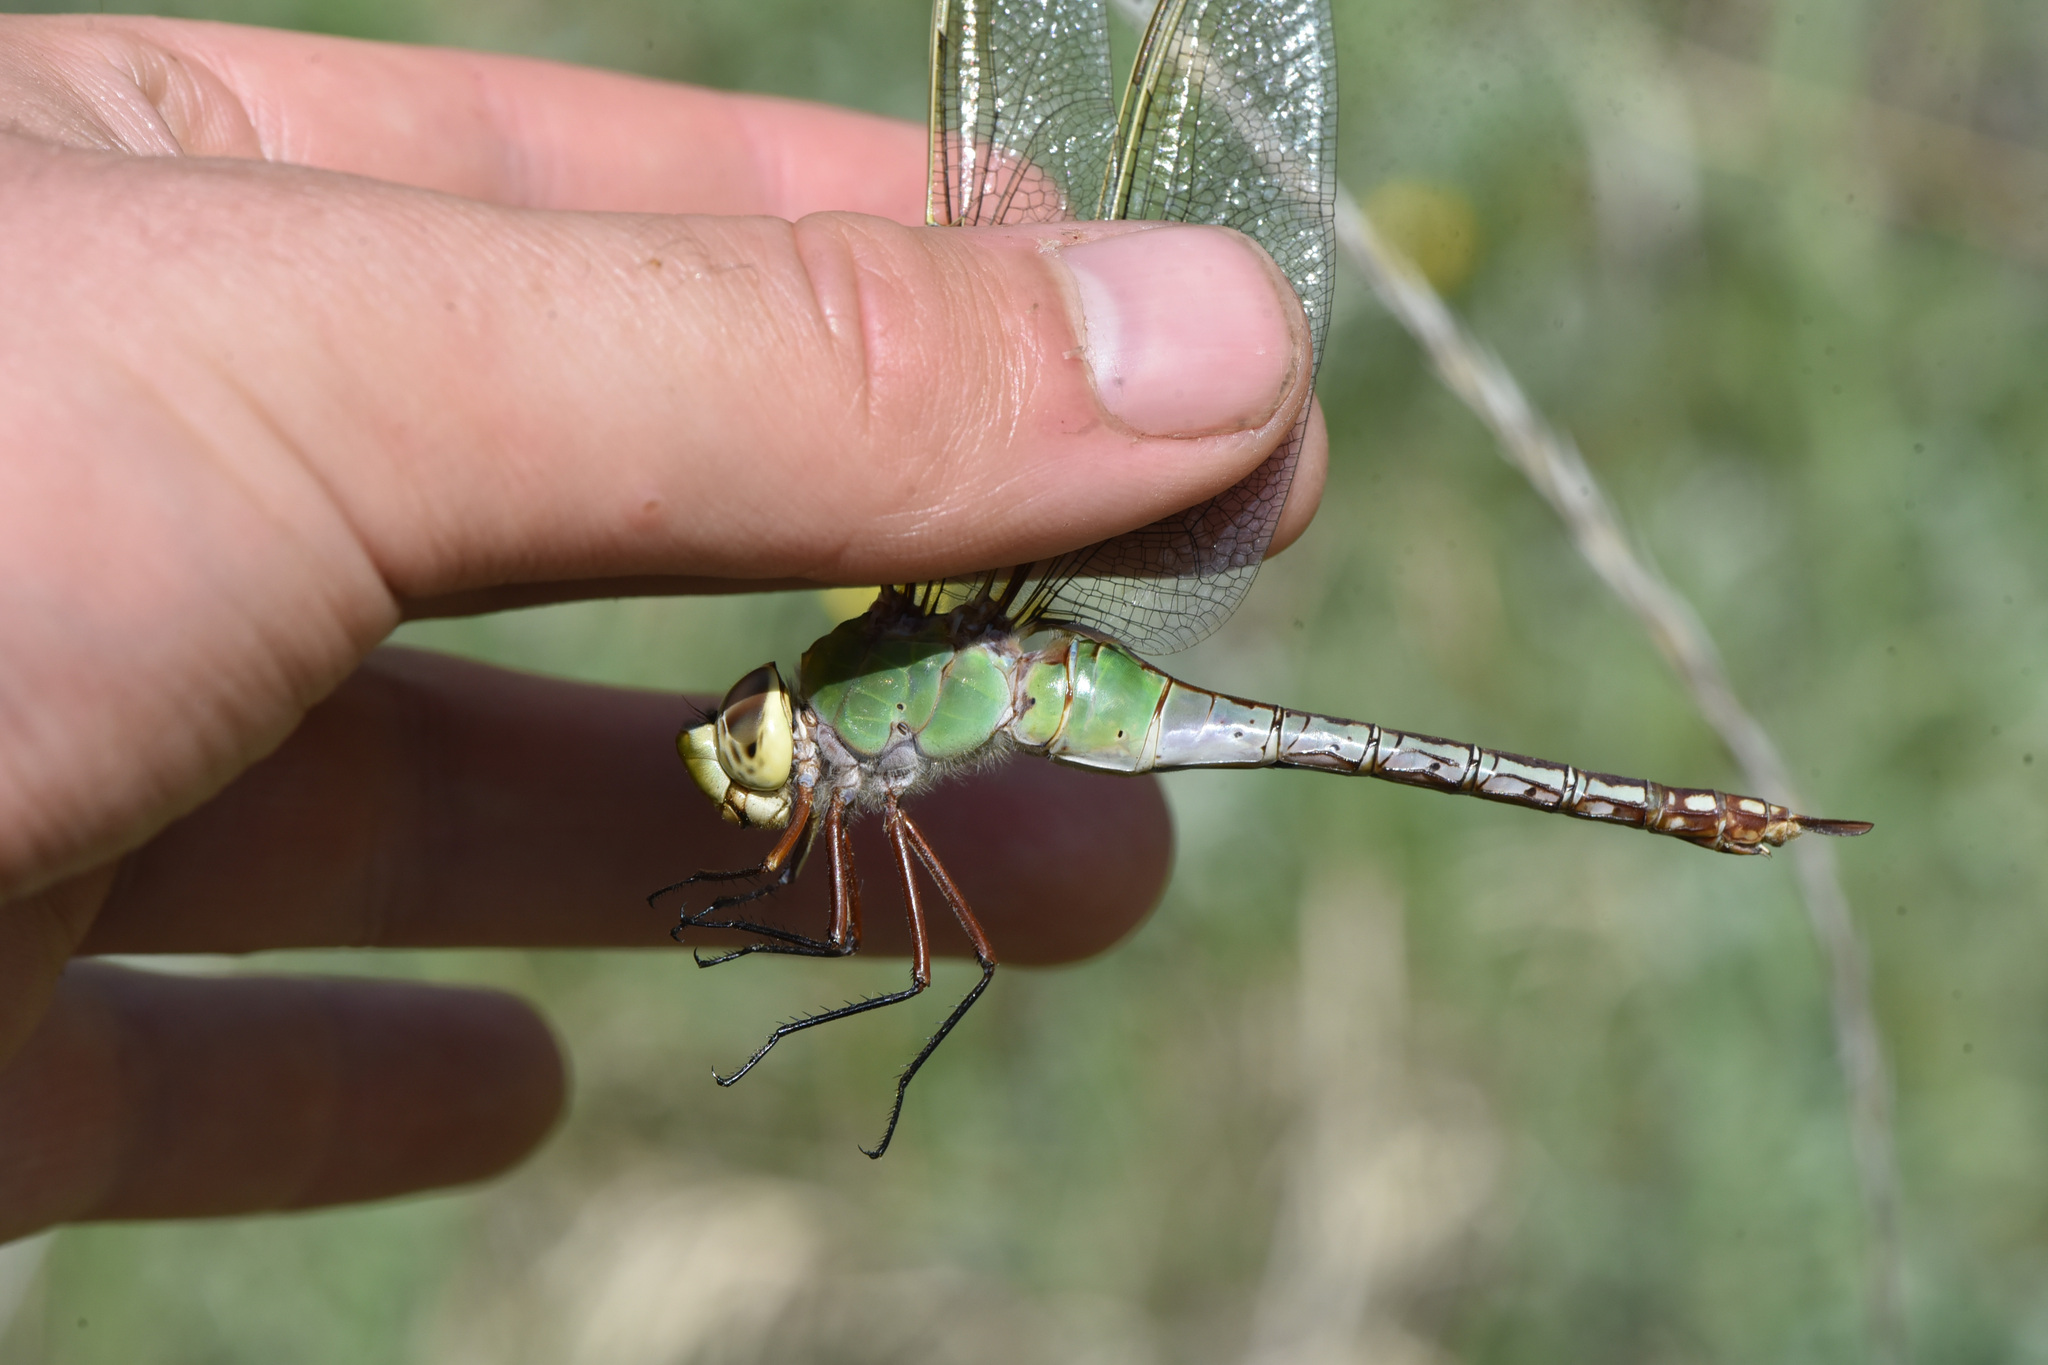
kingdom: Animalia
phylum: Arthropoda
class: Insecta
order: Odonata
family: Aeshnidae
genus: Anax
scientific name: Anax junius
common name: Common green darner
